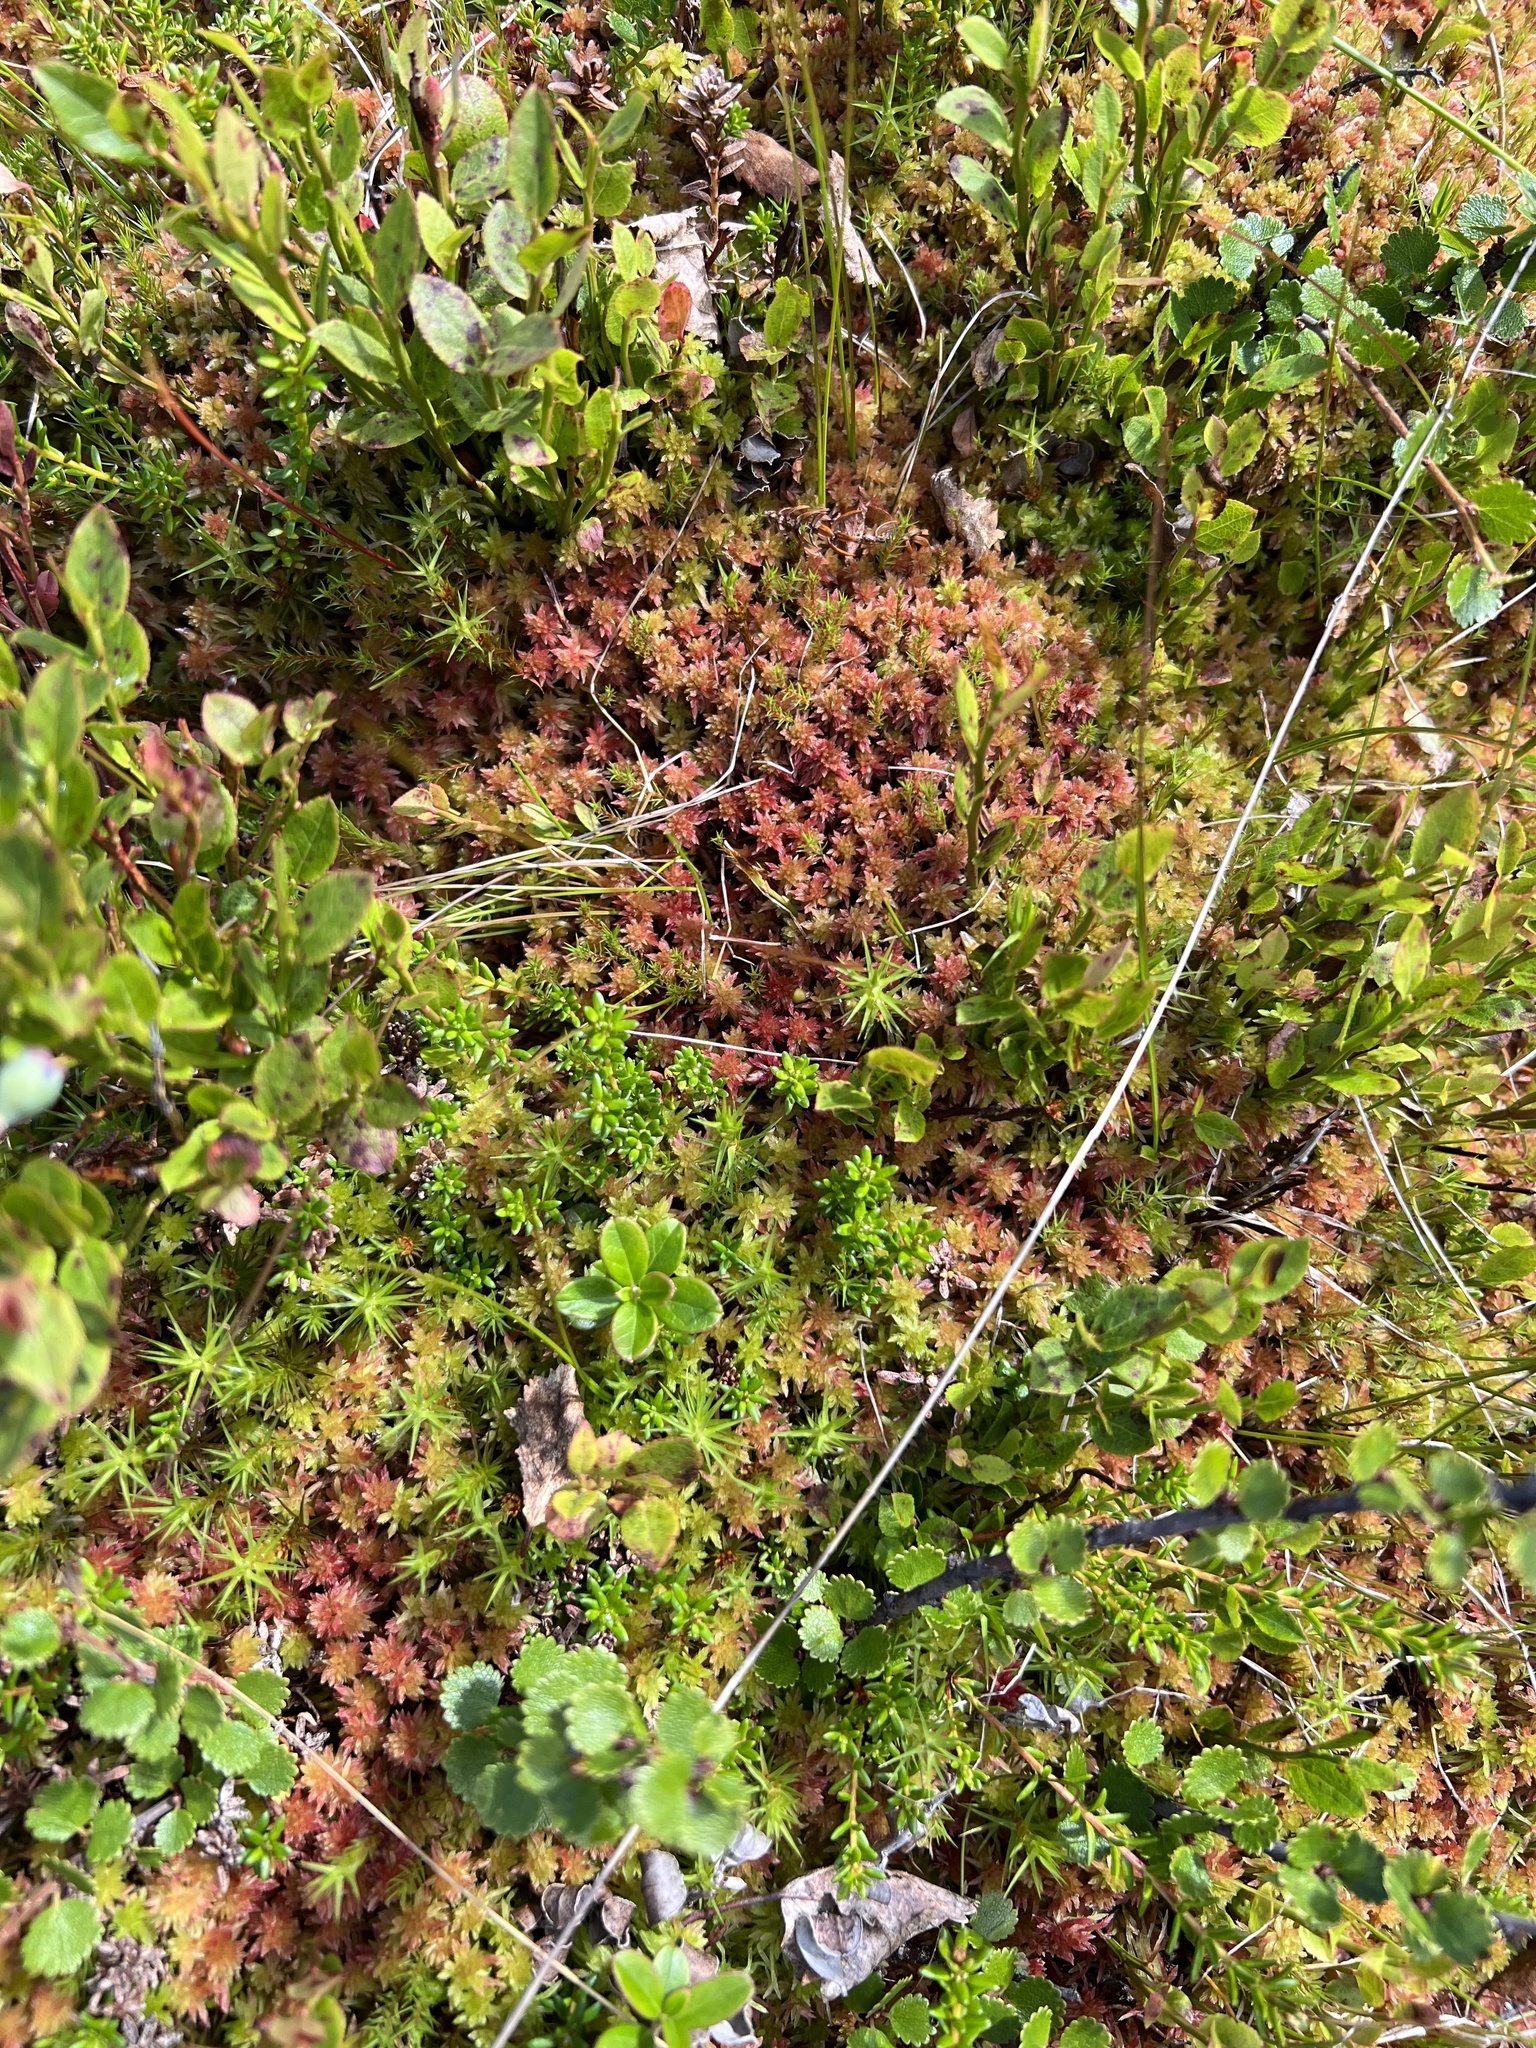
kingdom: Plantae
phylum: Bryophyta
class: Sphagnopsida
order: Sphagnales
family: Sphagnaceae
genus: Sphagnum
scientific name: Sphagnum capillifolium
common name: Small red peat moss
